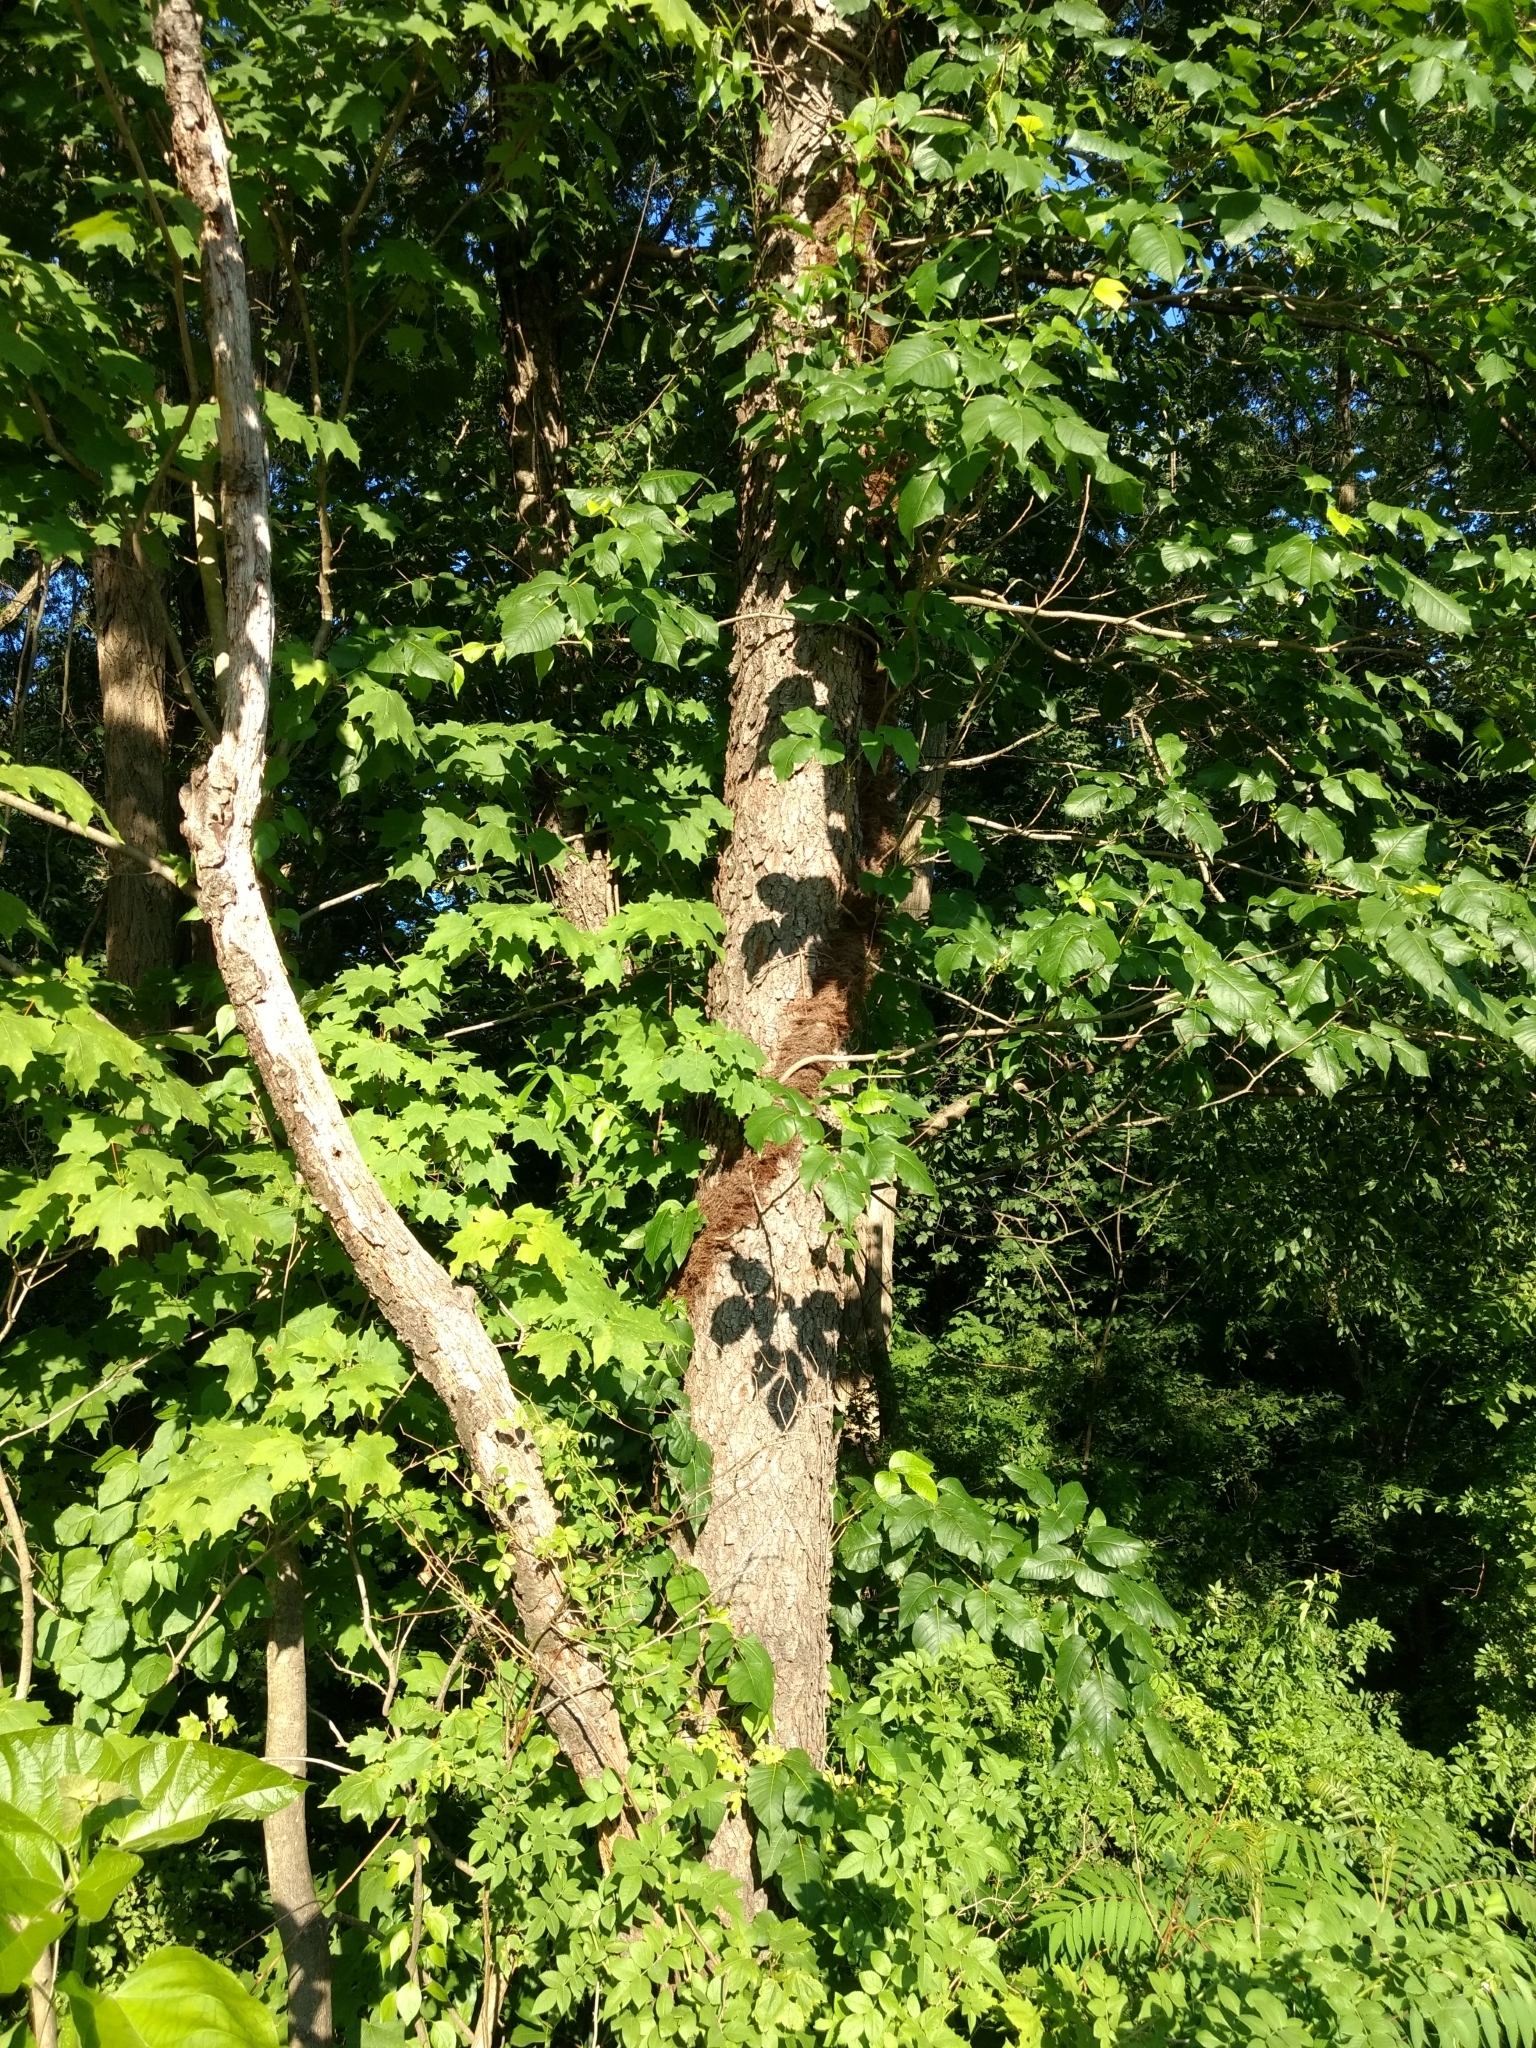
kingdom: Plantae
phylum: Tracheophyta
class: Magnoliopsida
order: Sapindales
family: Anacardiaceae
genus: Toxicodendron
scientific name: Toxicodendron radicans
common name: Poison ivy
